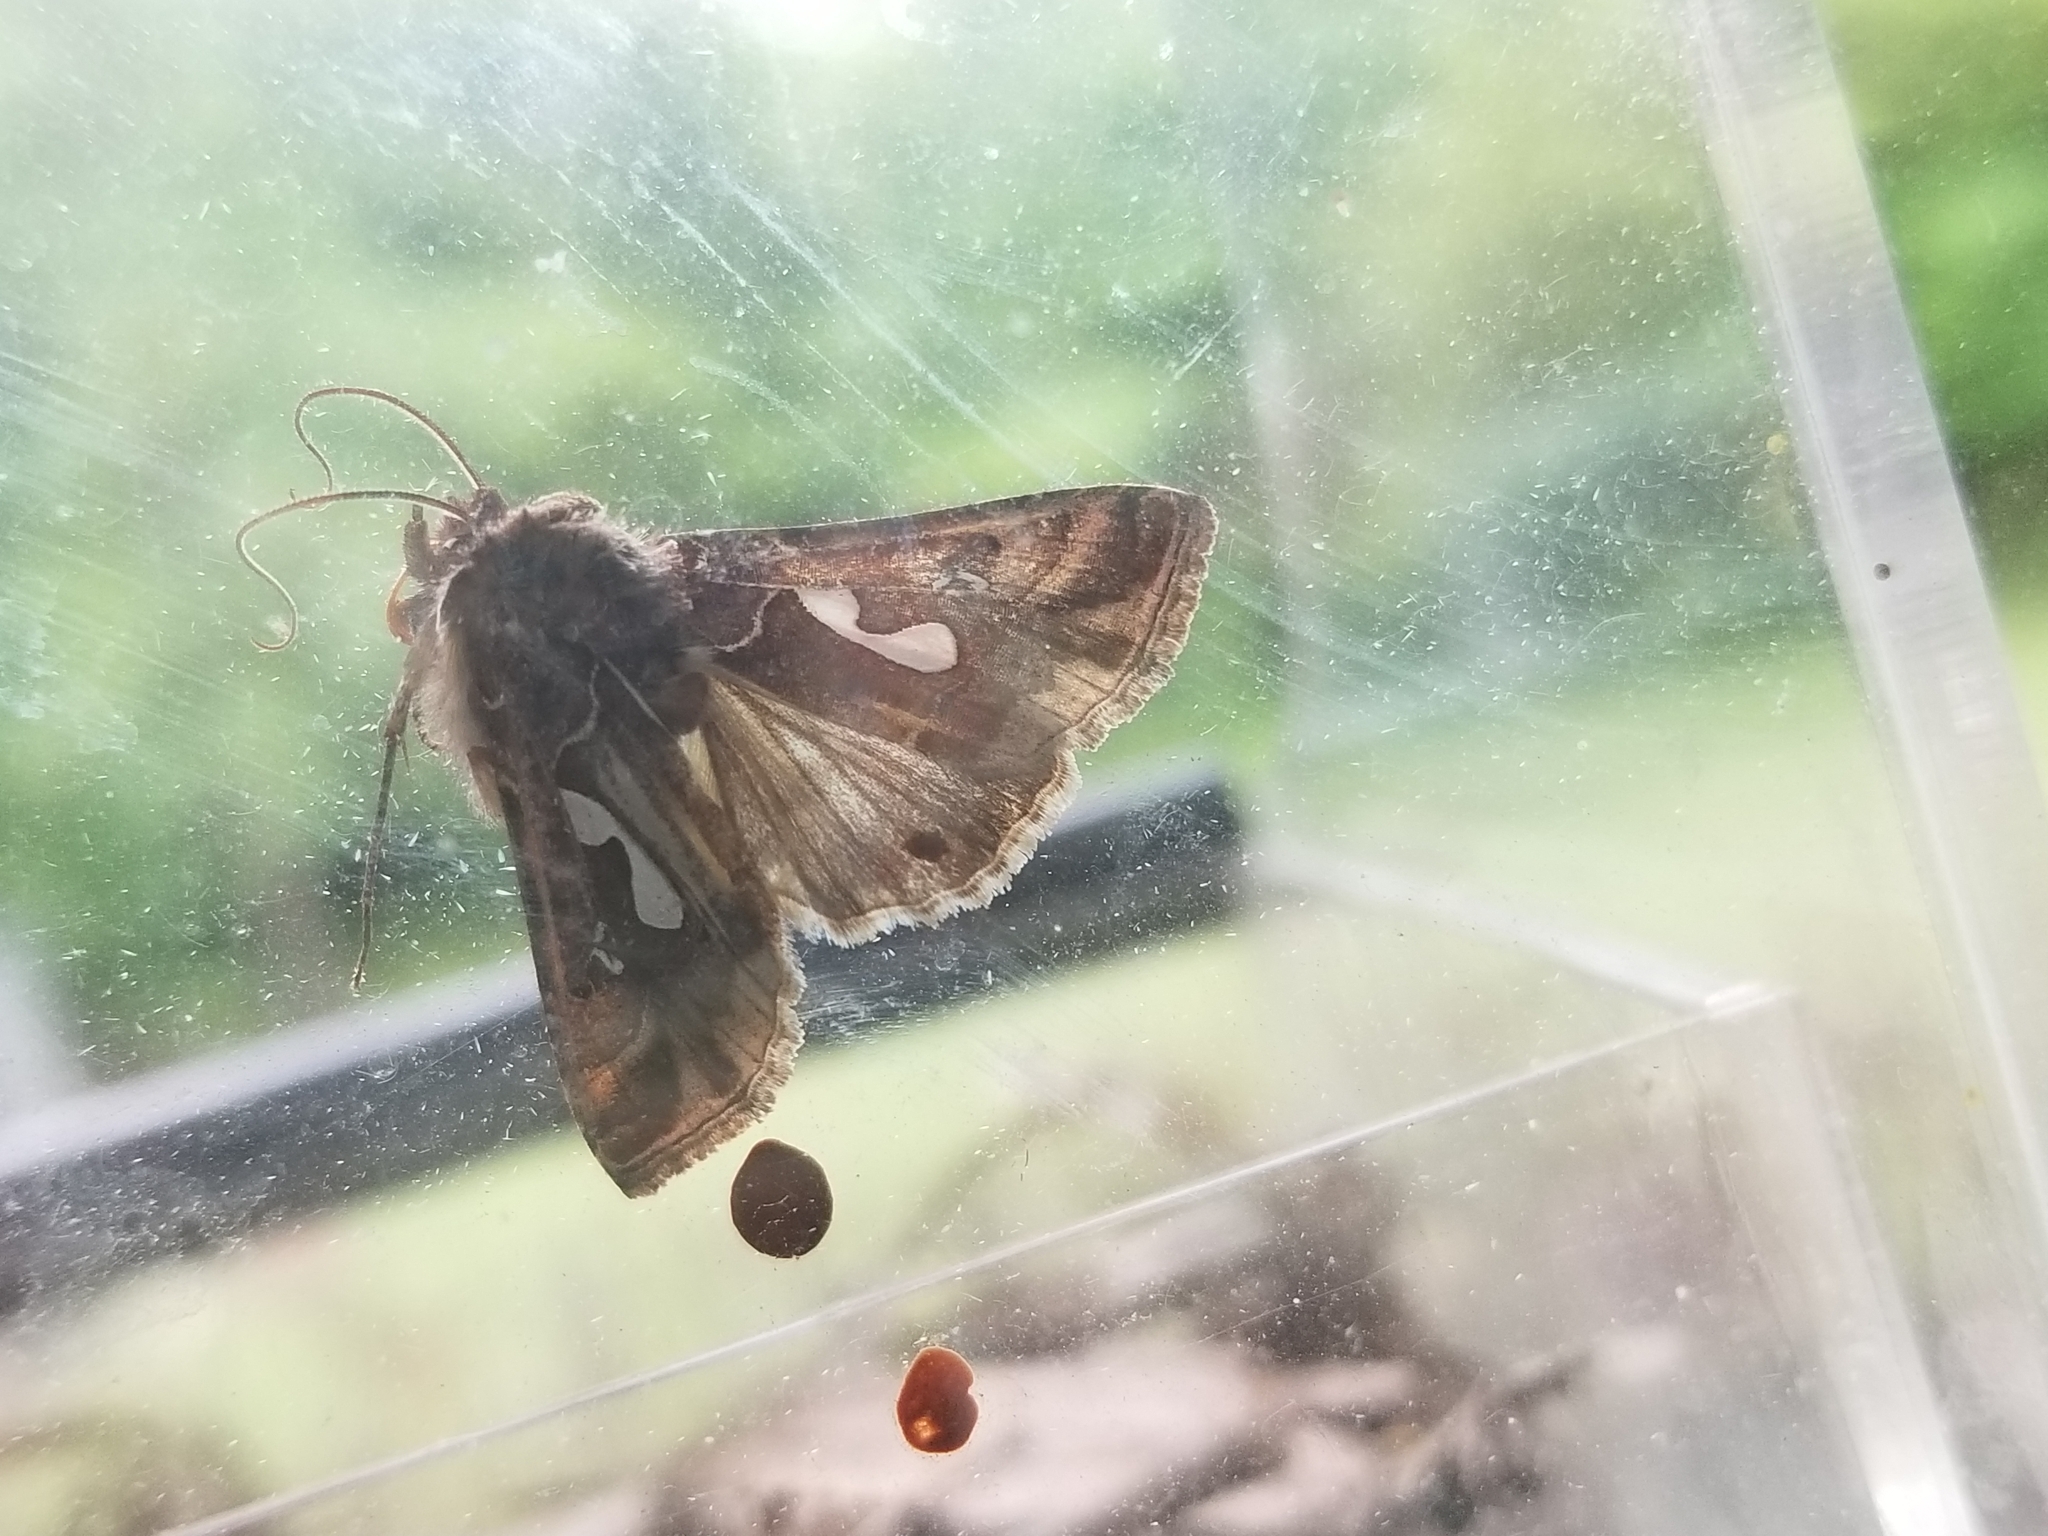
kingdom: Animalia
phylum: Arthropoda
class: Insecta
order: Lepidoptera
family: Noctuidae
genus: Megalographa
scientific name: Megalographa biloba
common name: Cutworm
